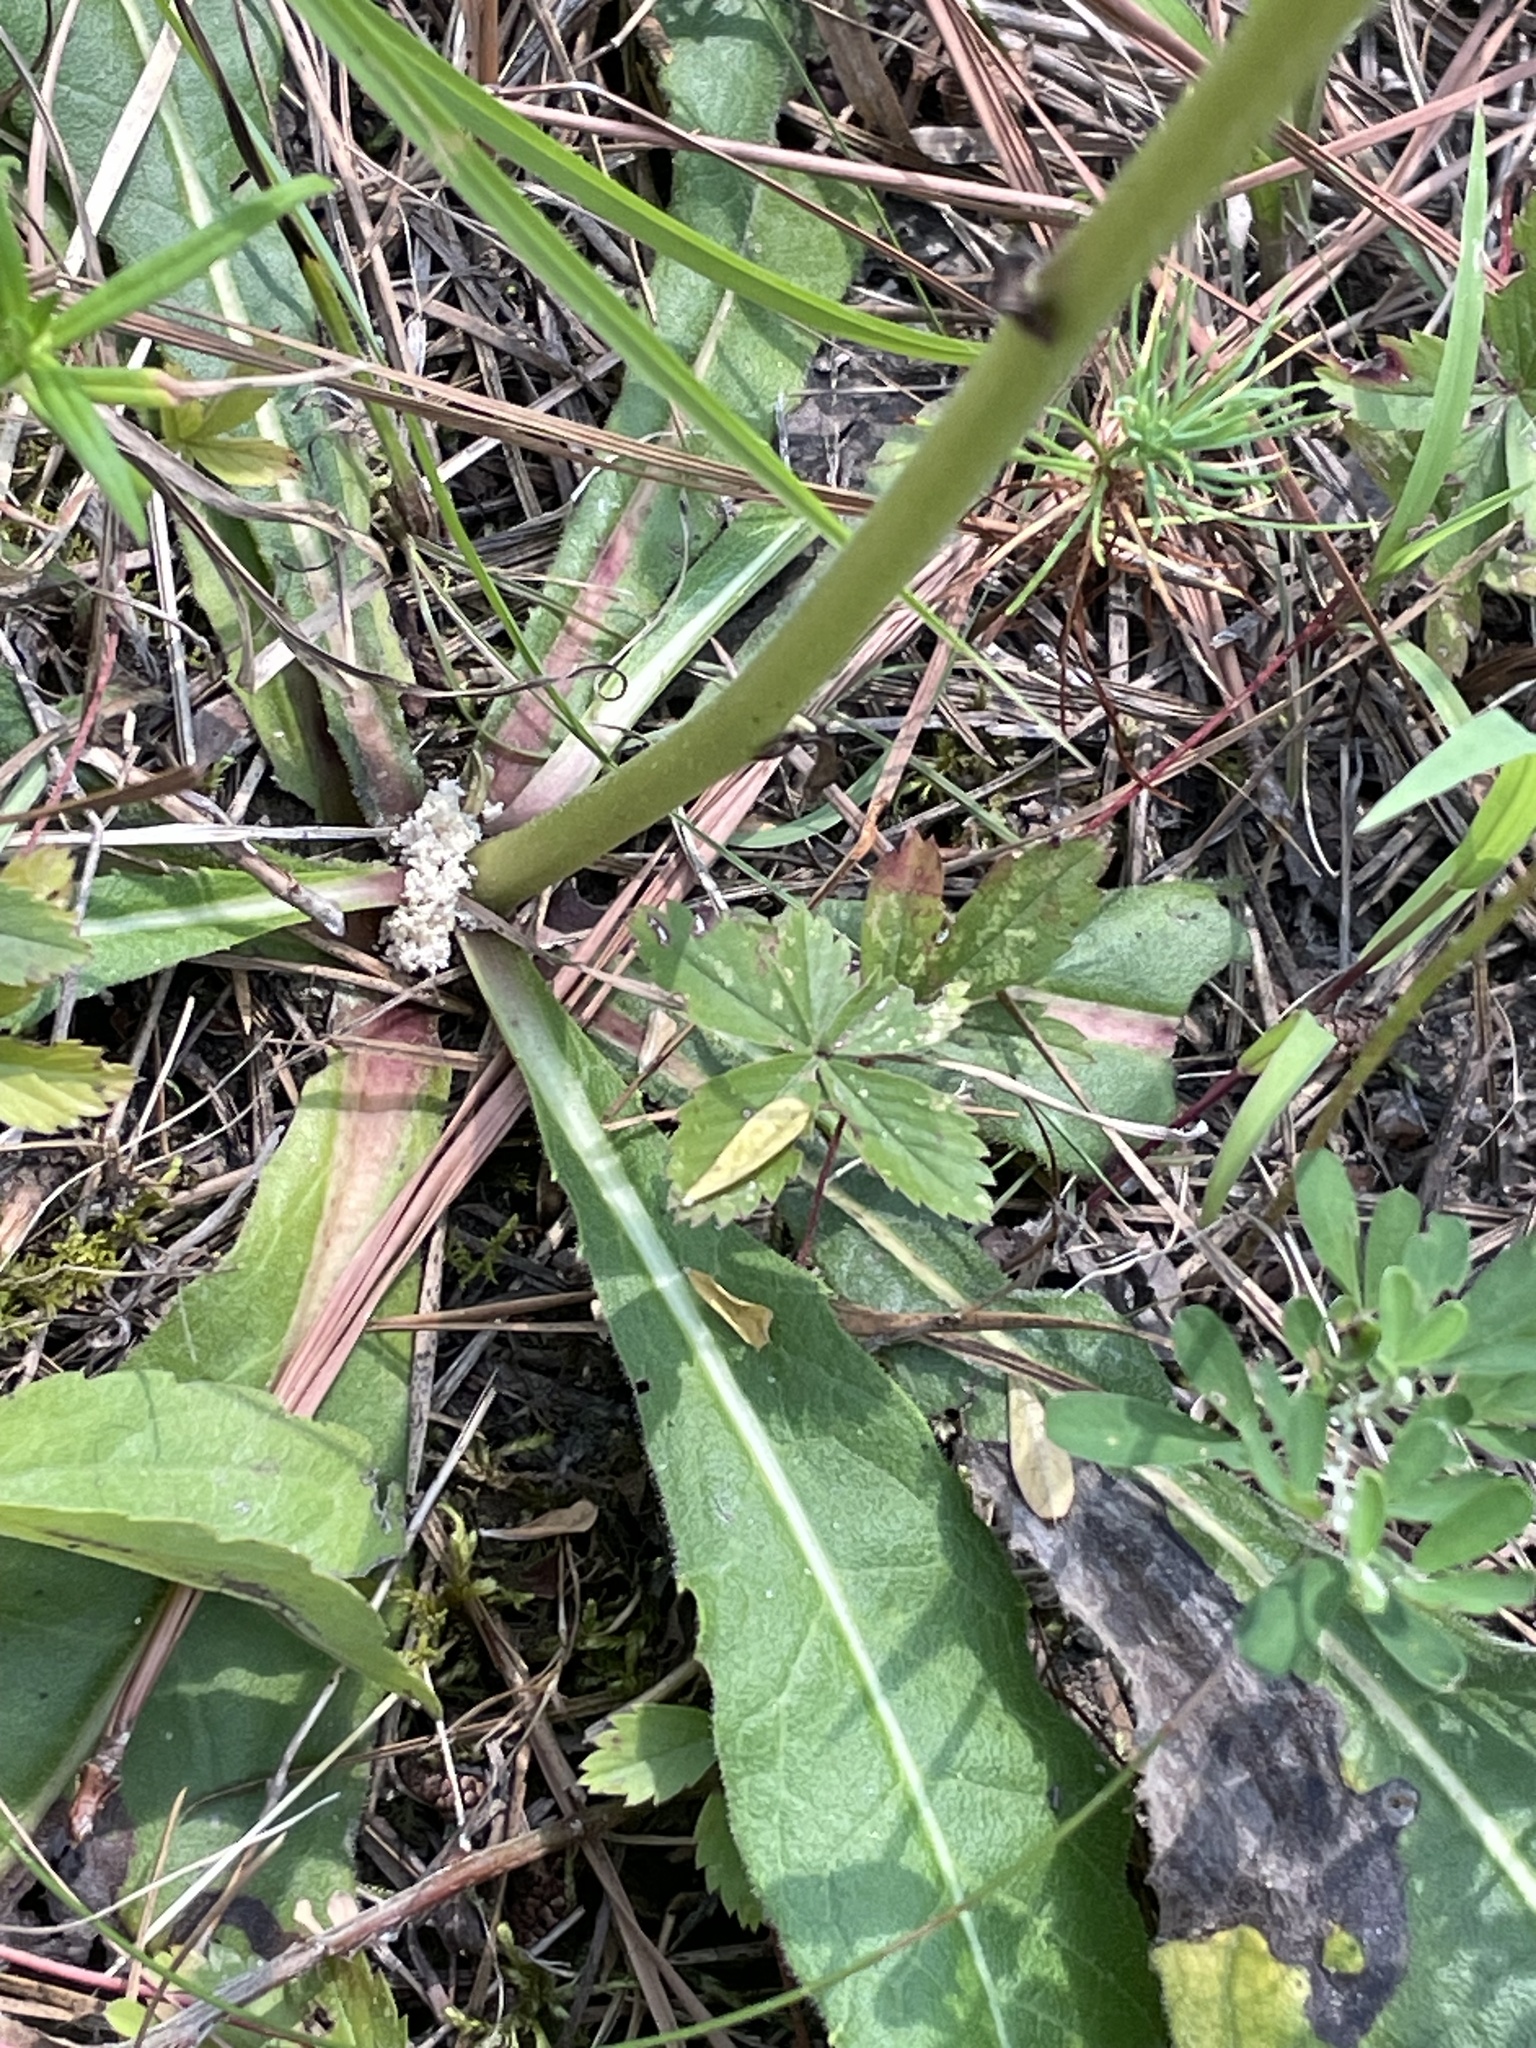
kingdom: Plantae
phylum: Tracheophyta
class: Magnoliopsida
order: Asterales
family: Asteraceae
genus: Vernonia
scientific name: Vernonia acaulis
